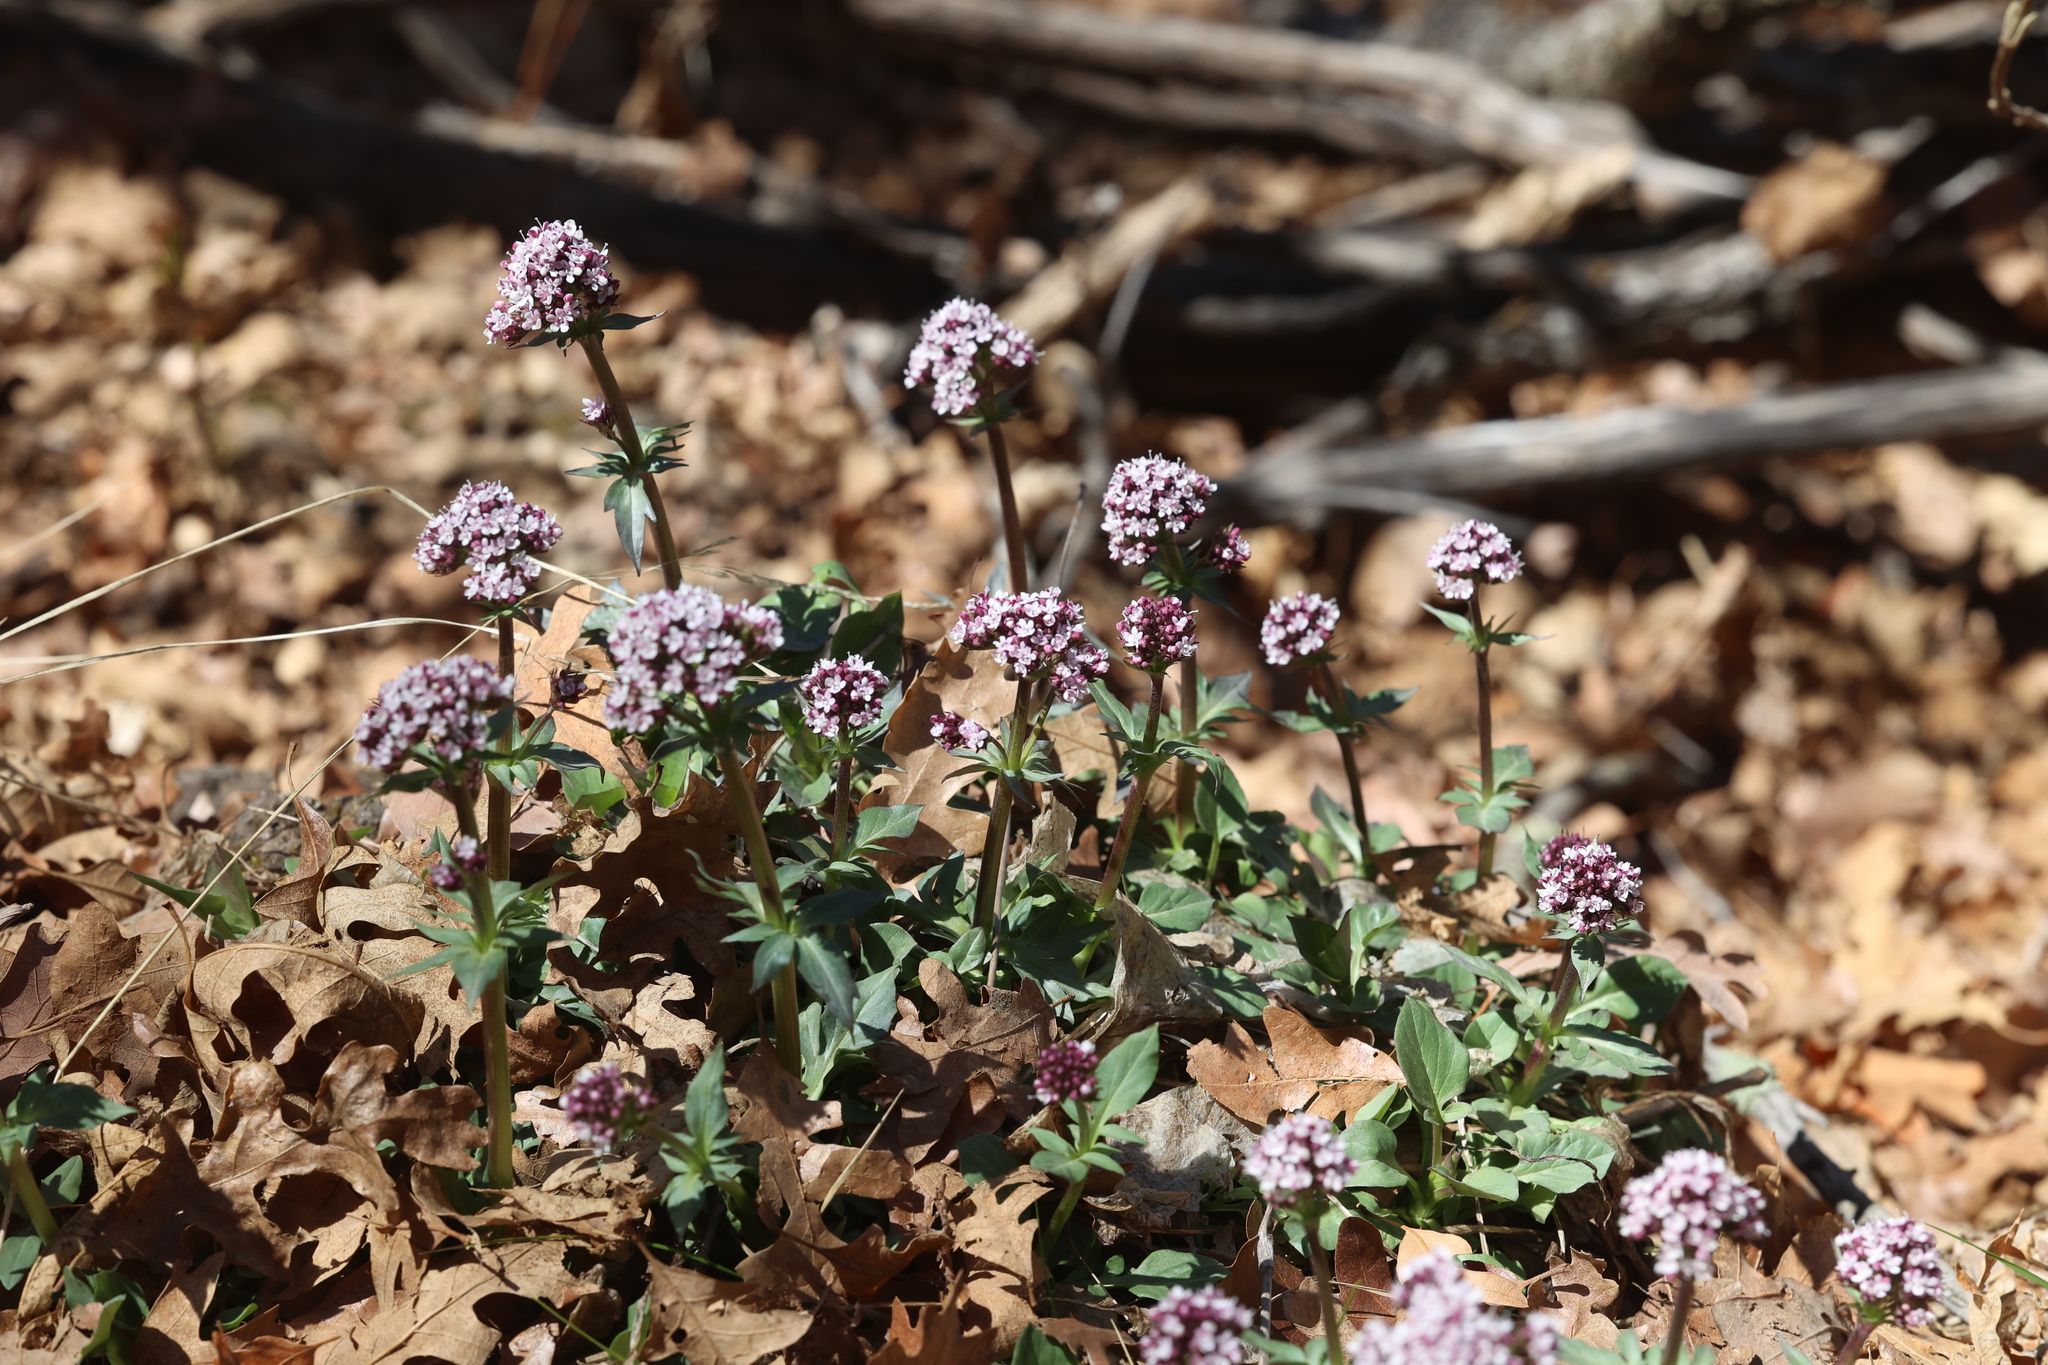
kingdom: Plantae
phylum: Tracheophyta
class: Magnoliopsida
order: Dipsacales
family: Caprifoliaceae
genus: Valeriana
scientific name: Valeriana arizonica
